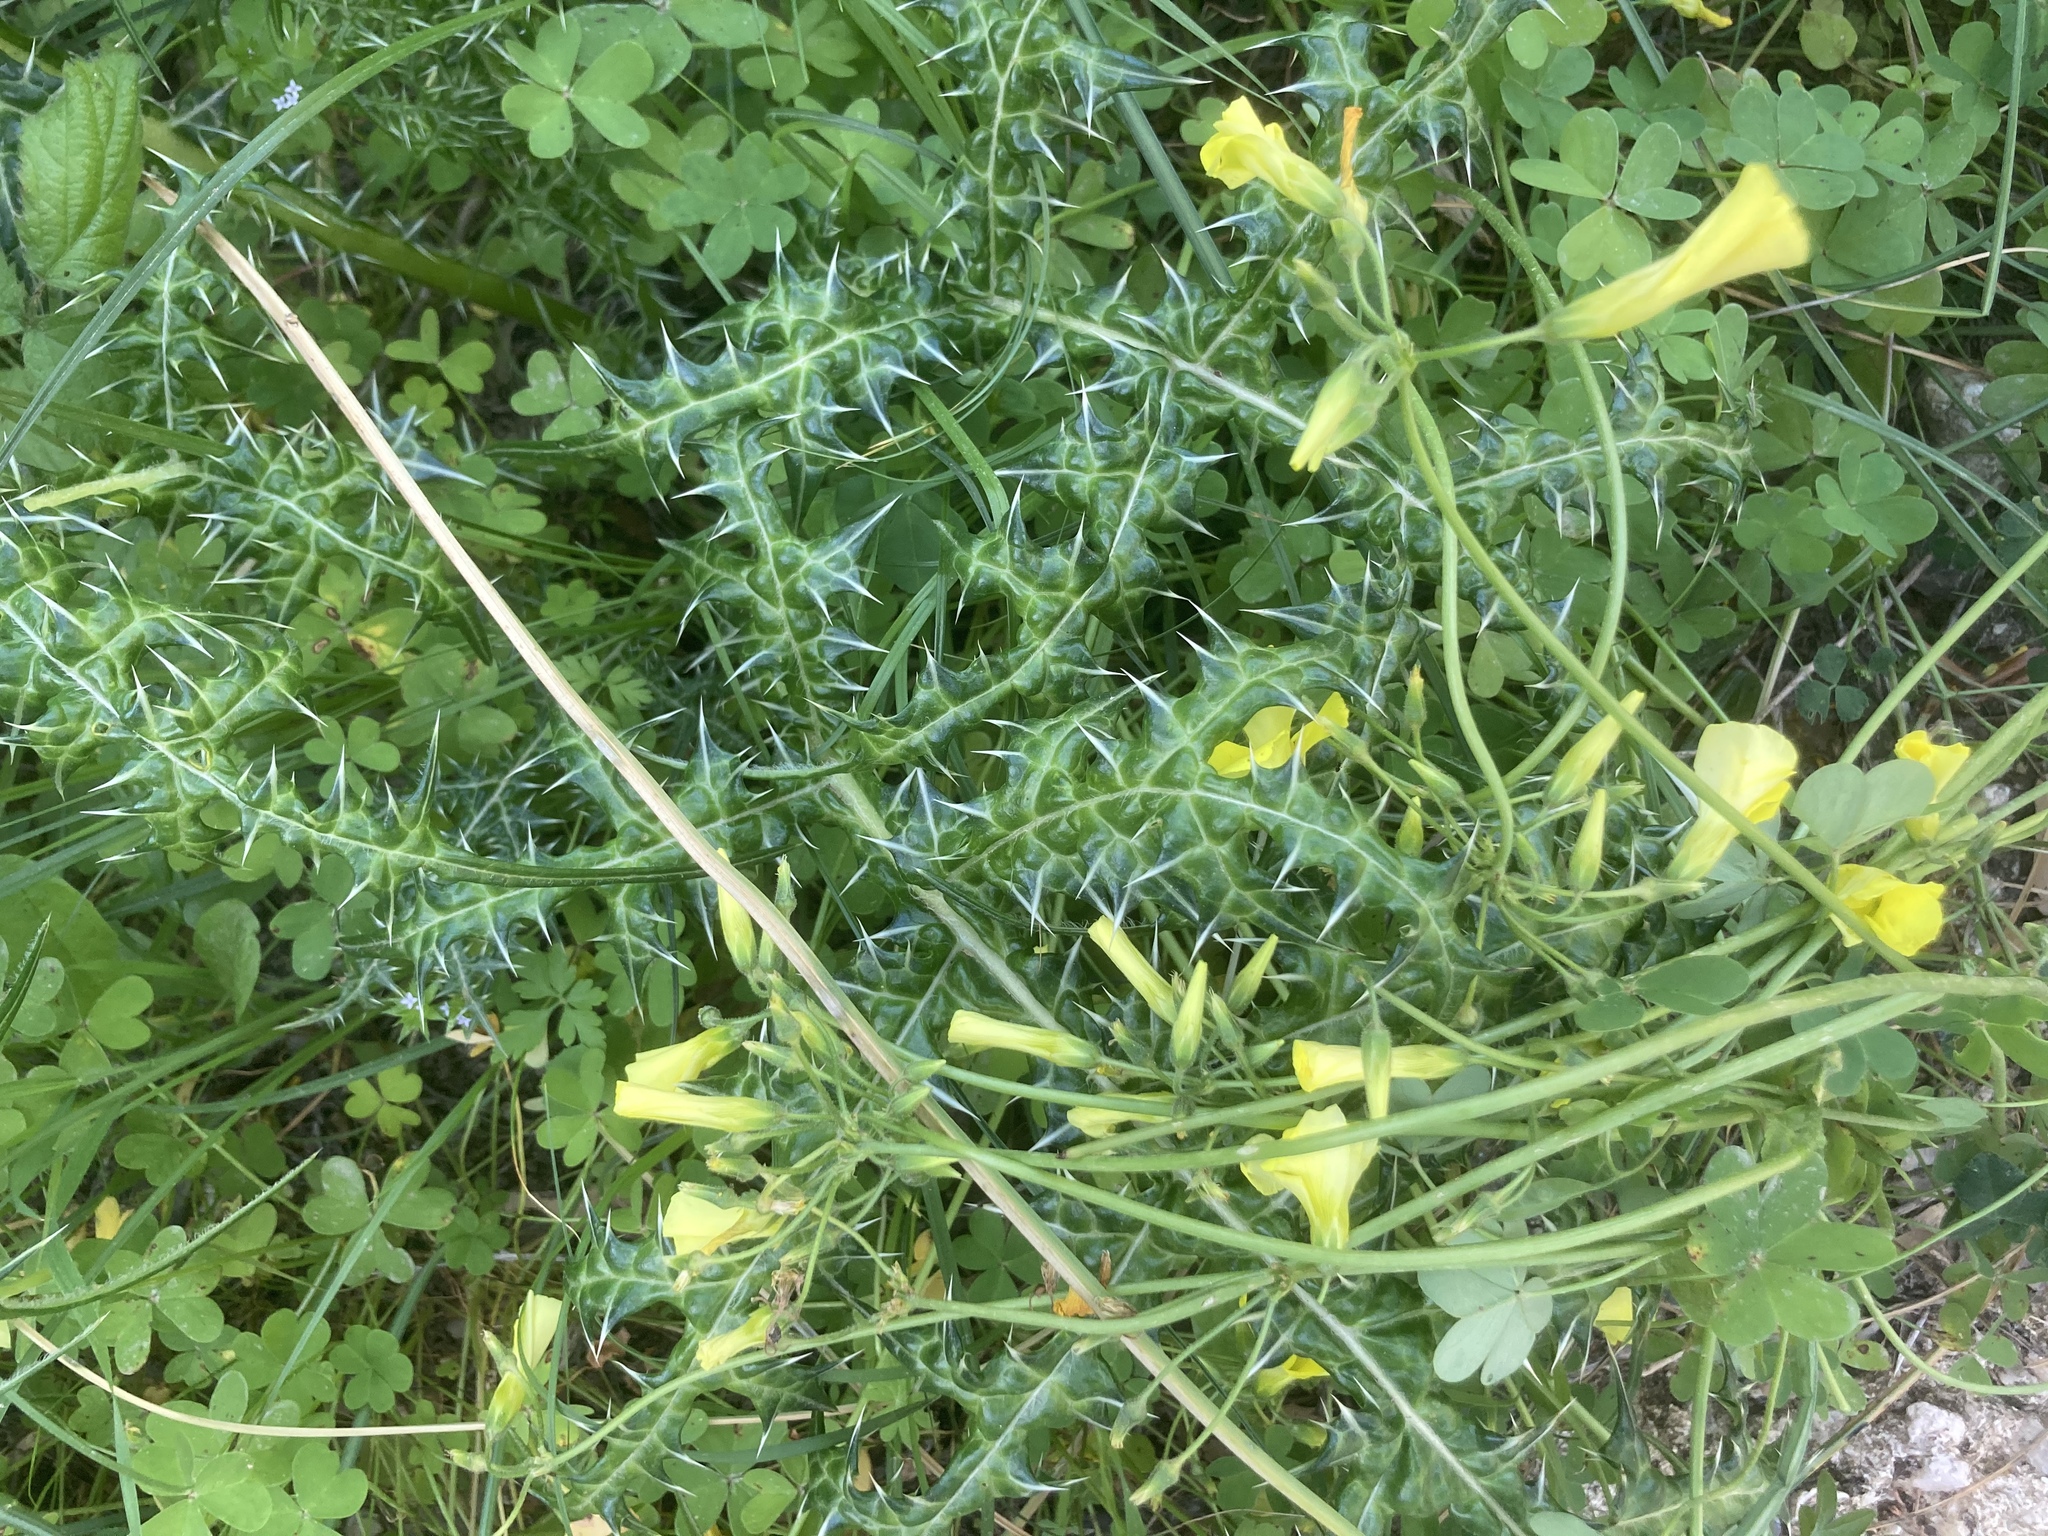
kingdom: Plantae
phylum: Tracheophyta
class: Magnoliopsida
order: Lamiales
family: Acanthaceae
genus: Acanthus
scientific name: Acanthus spinosus
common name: Spiny bear's-breech
